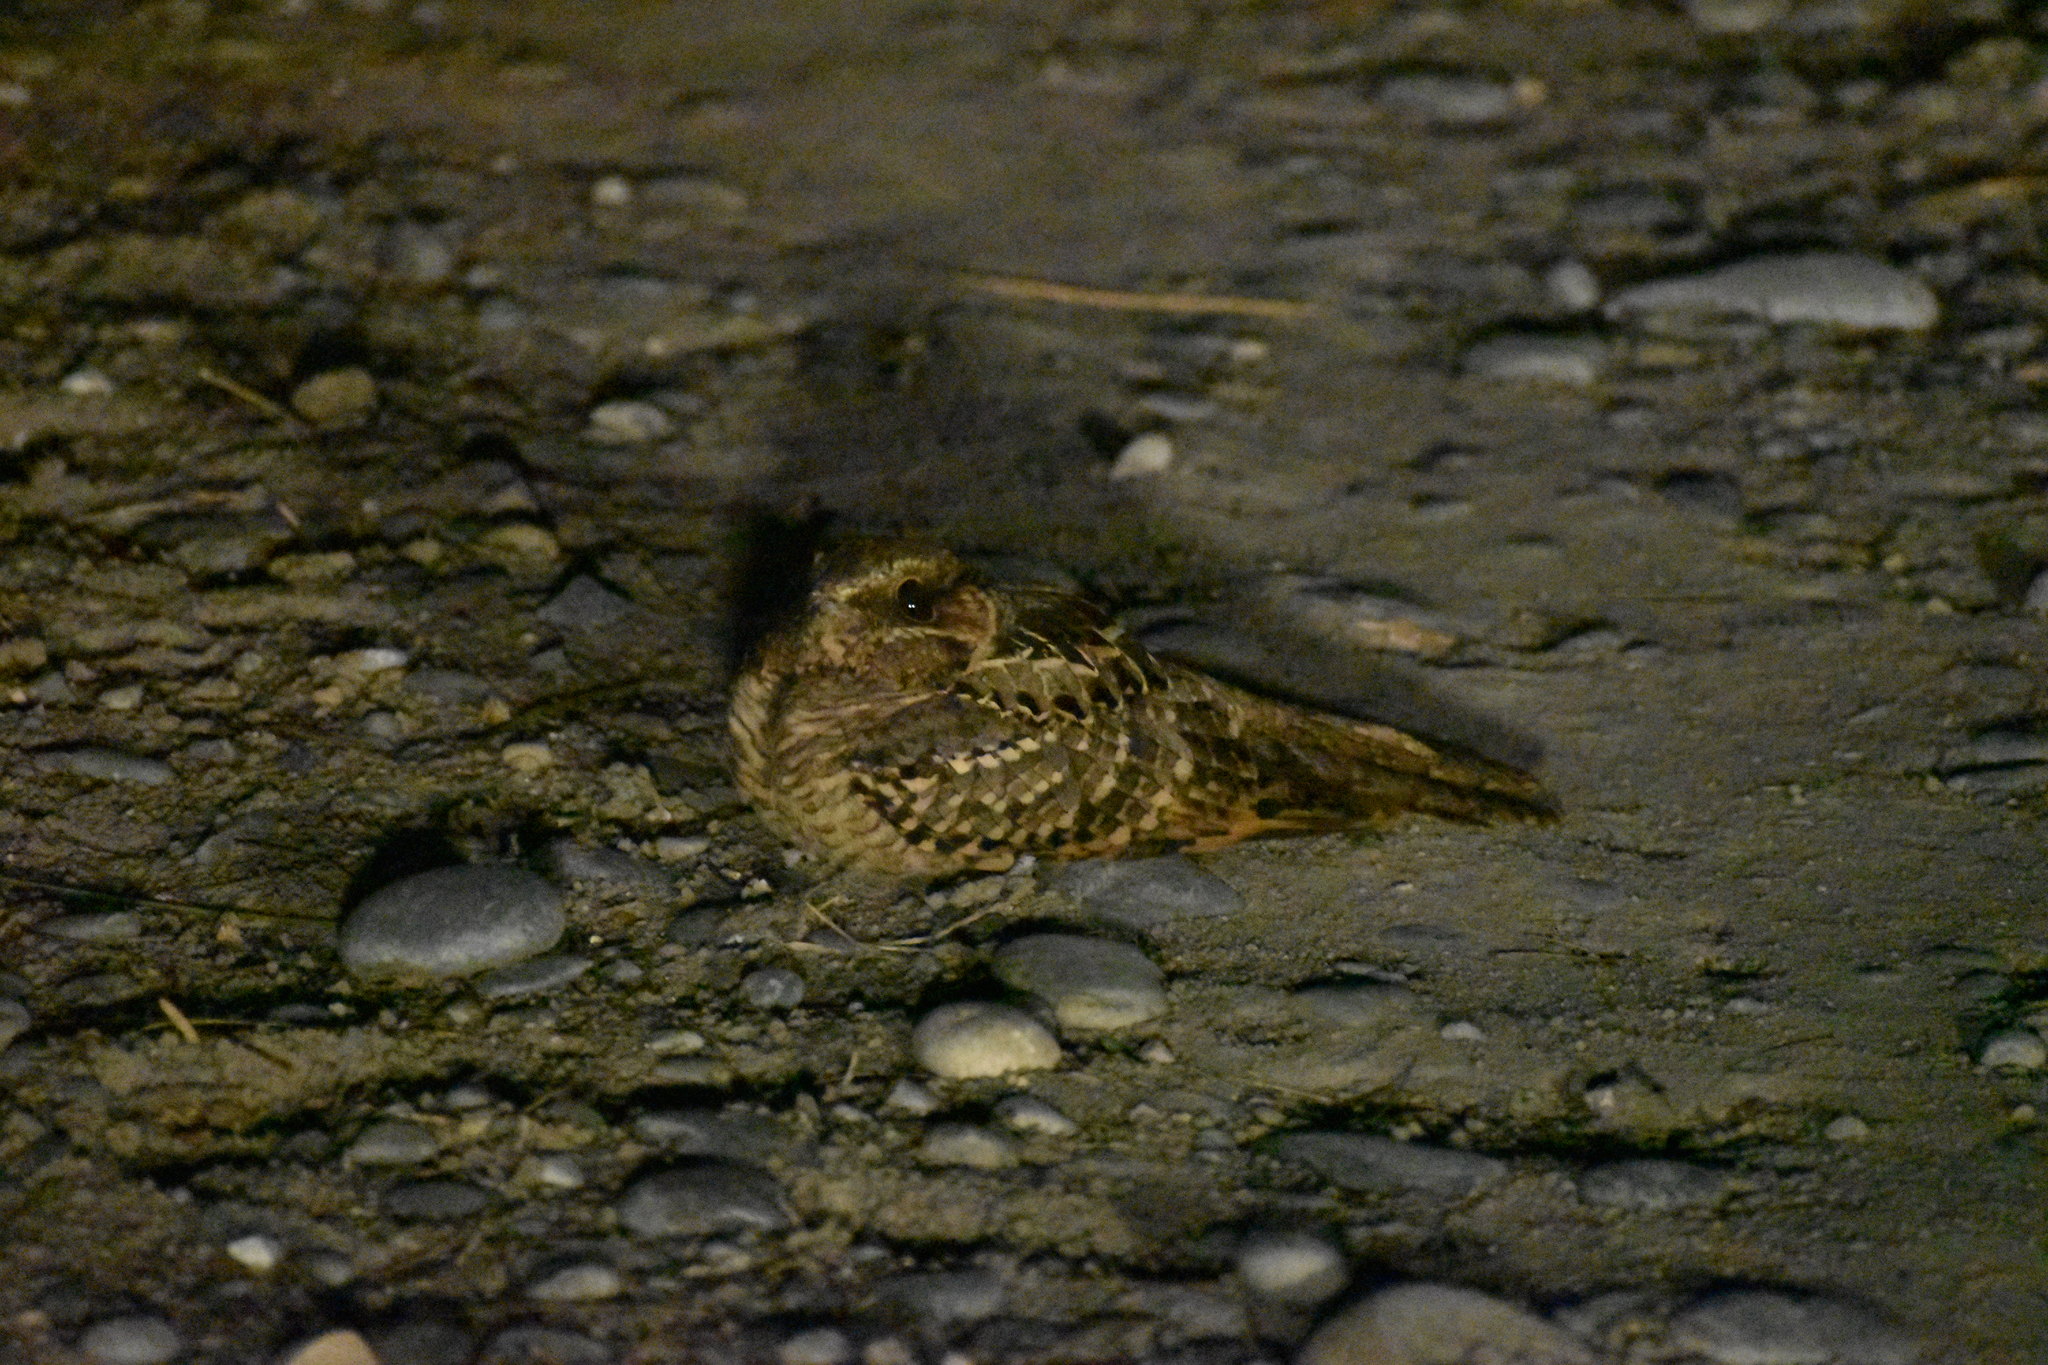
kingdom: Animalia
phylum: Chordata
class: Aves
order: Caprimulgiformes
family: Caprimulgidae
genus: Nyctidromus
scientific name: Nyctidromus albicollis
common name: Pauraque
